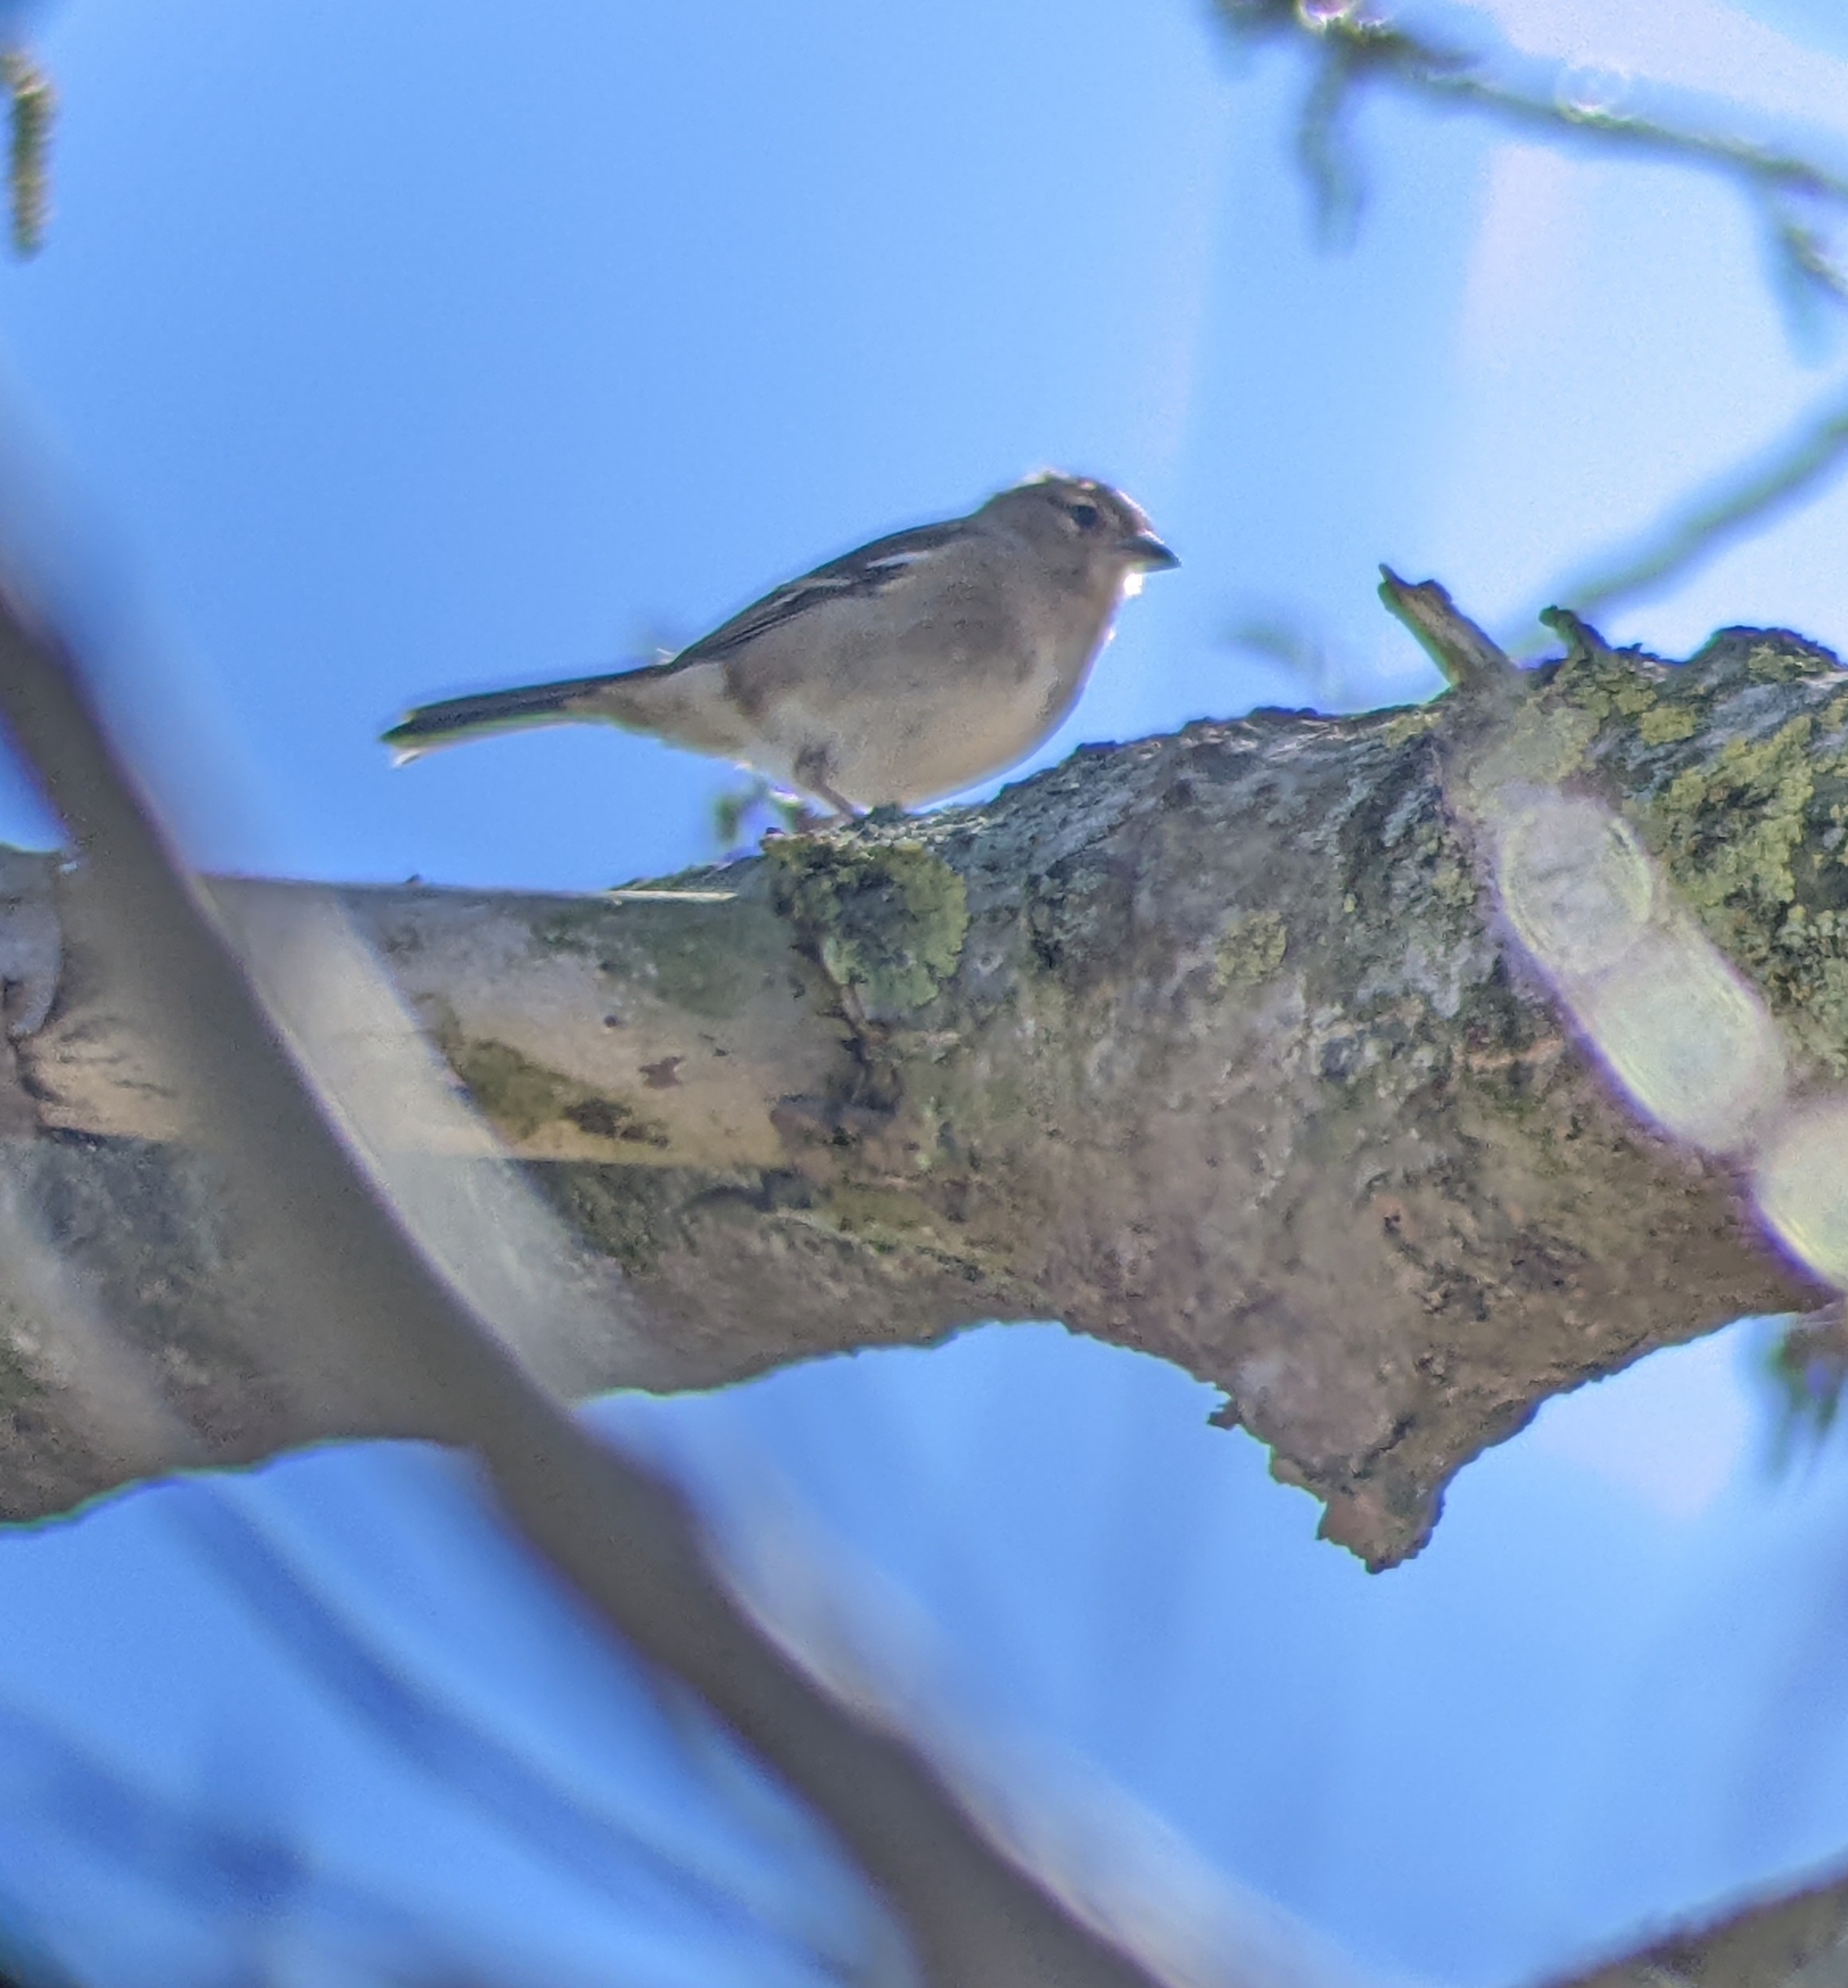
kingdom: Animalia
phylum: Chordata
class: Aves
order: Passeriformes
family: Fringillidae
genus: Fringilla
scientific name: Fringilla coelebs
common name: Common chaffinch
